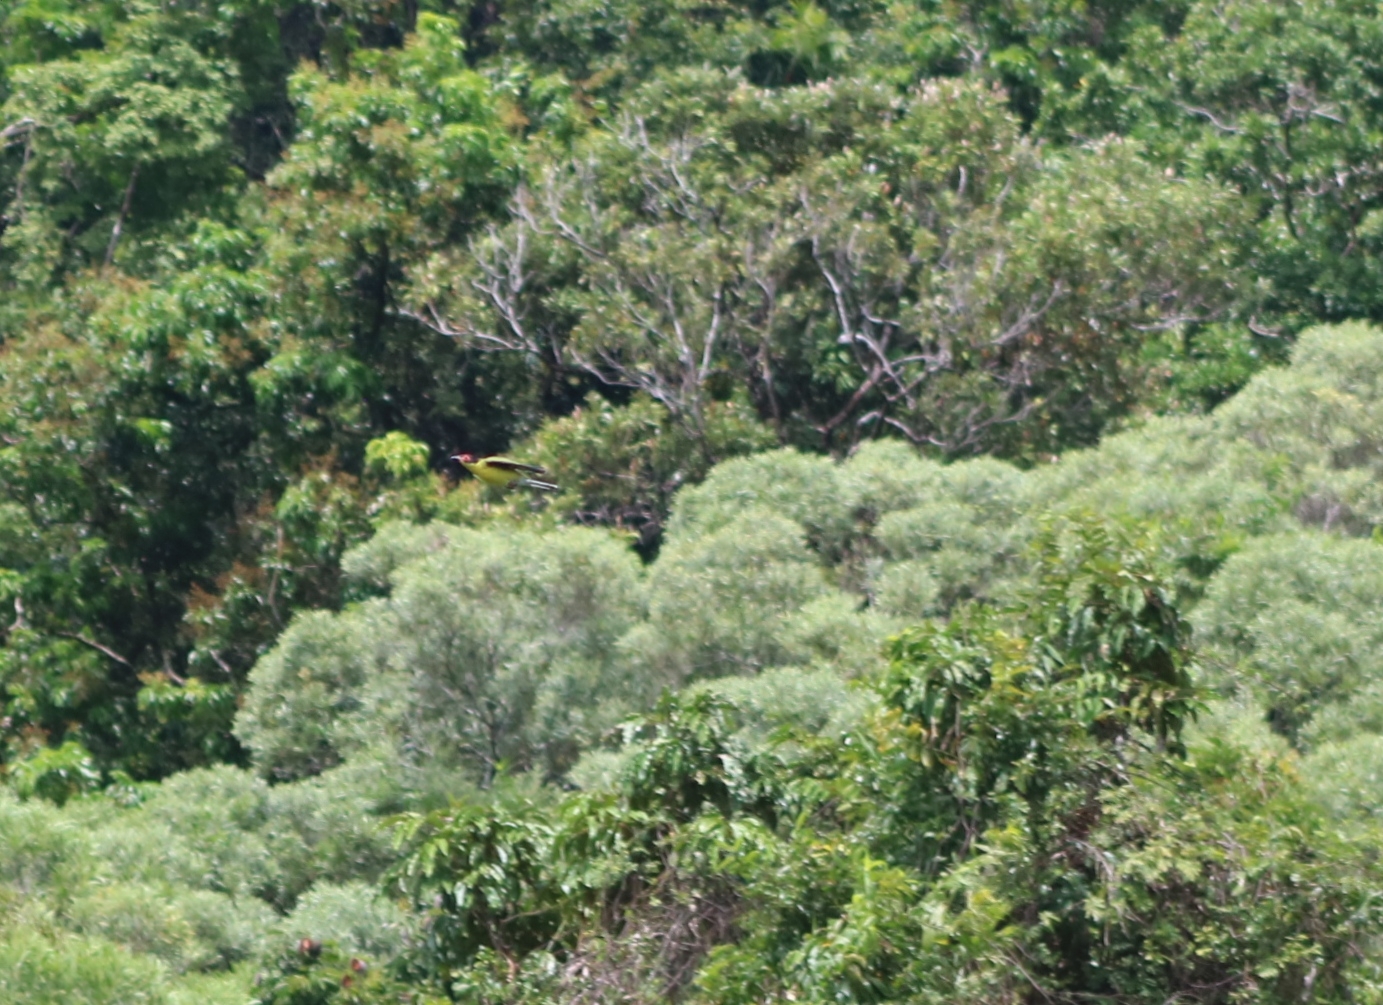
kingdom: Animalia
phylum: Chordata
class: Aves
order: Passeriformes
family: Oriolidae
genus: Sphecotheres
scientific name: Sphecotheres vieilloti
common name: Australasian figbird
